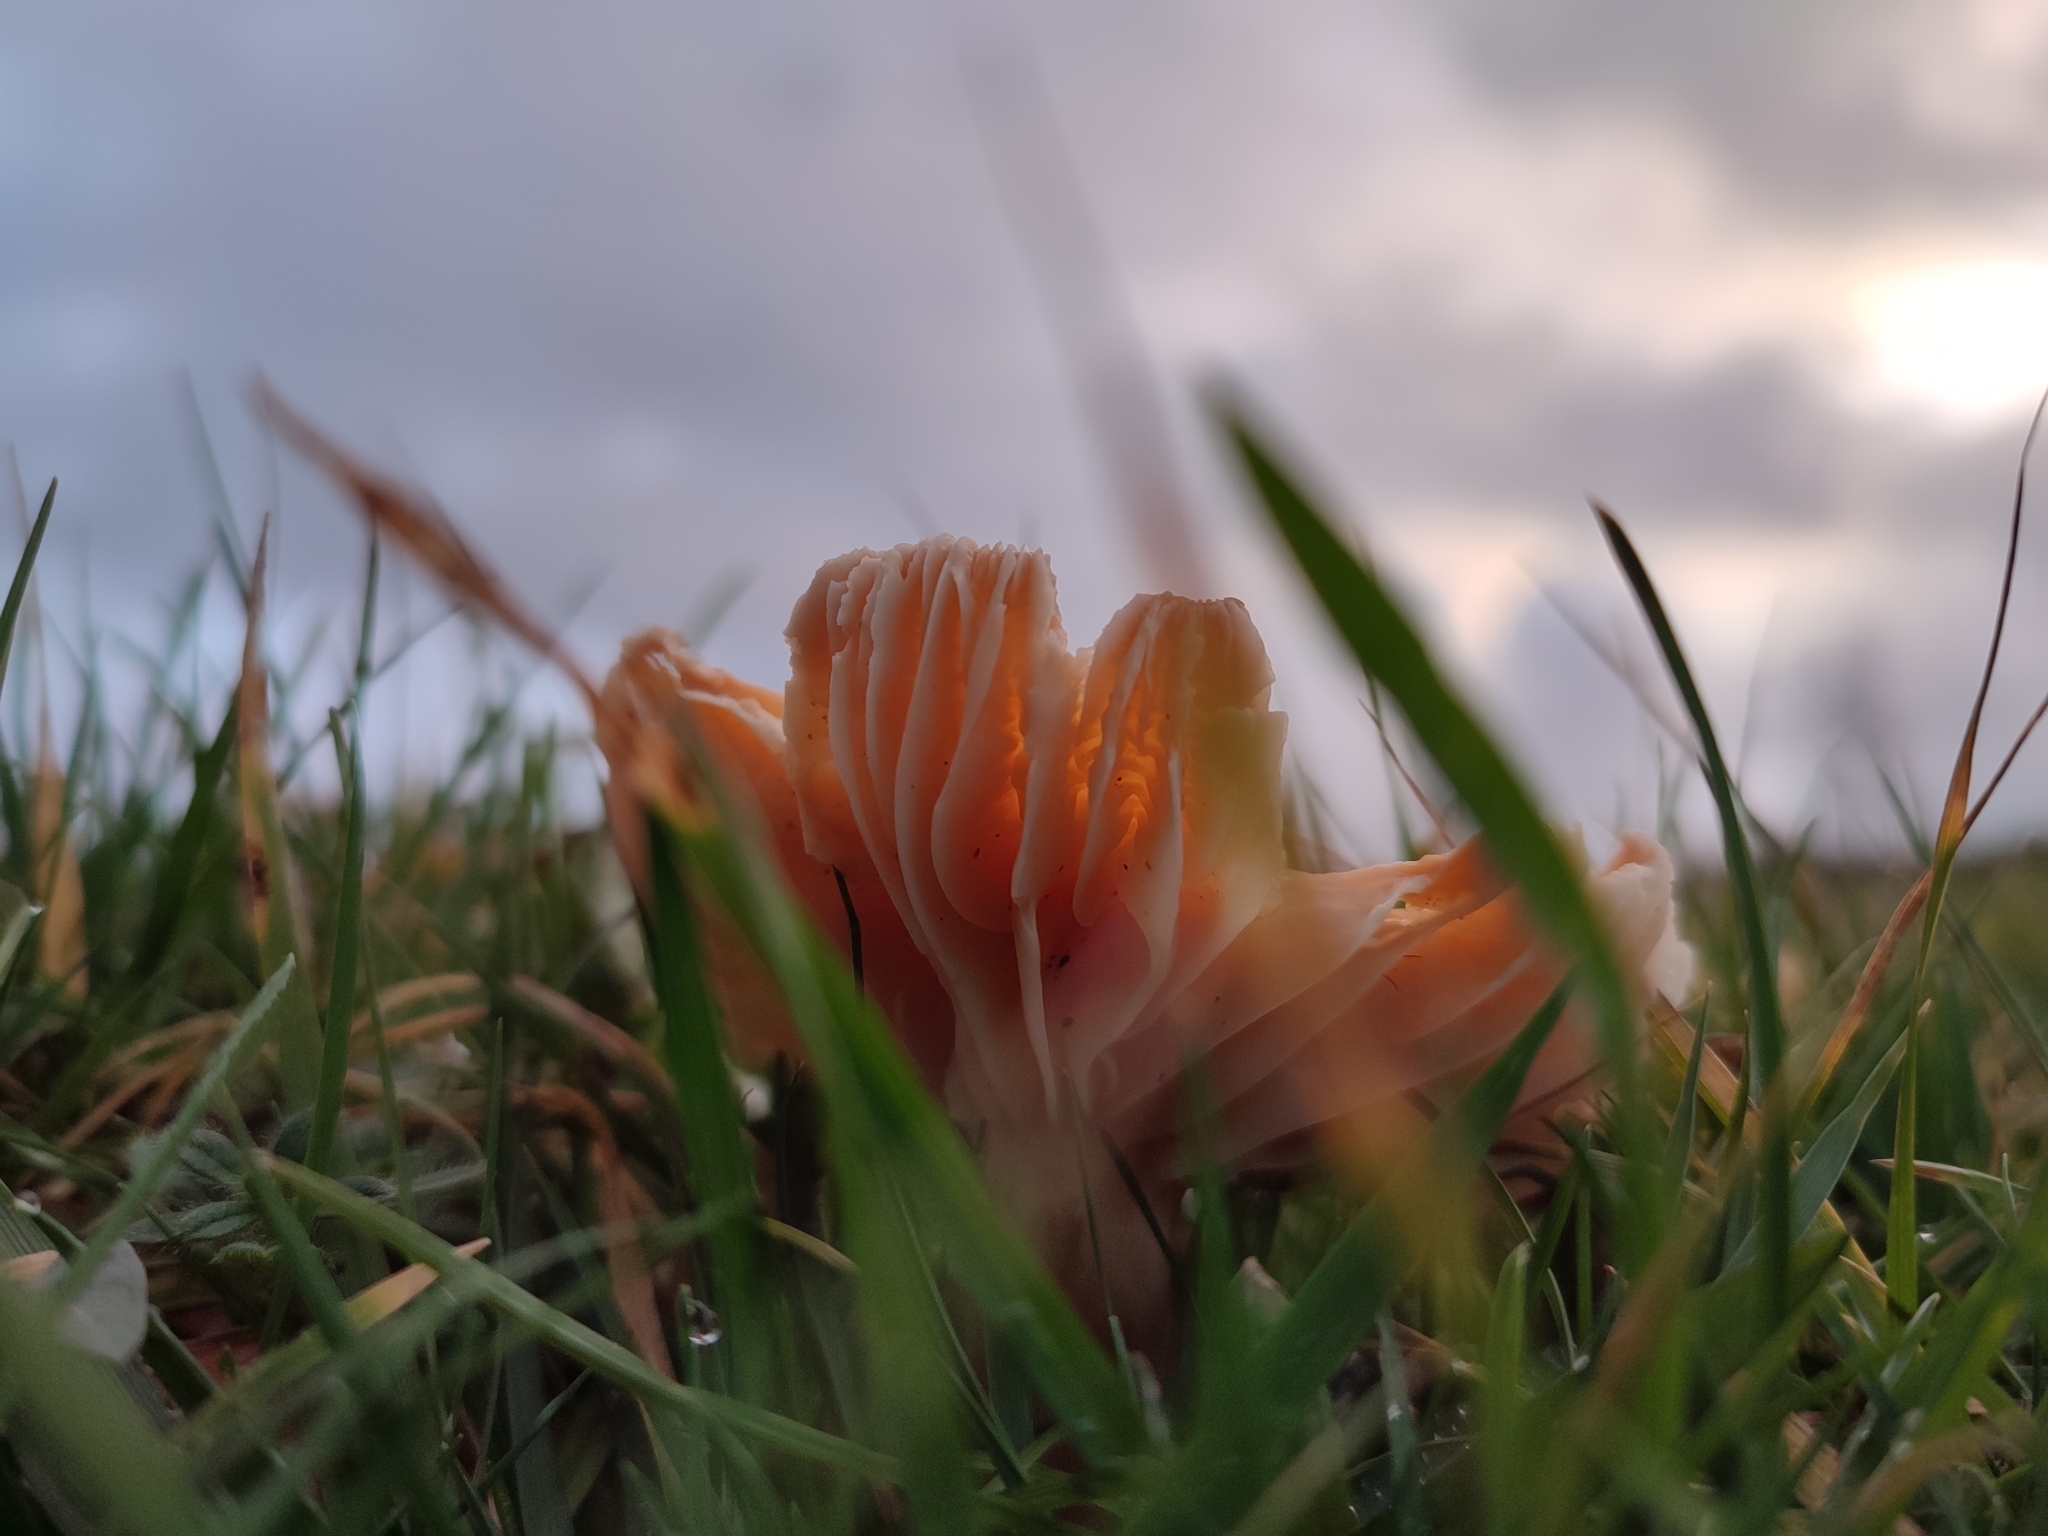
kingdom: Fungi
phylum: Basidiomycota
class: Agaricomycetes
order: Agaricales
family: Hygrophoraceae
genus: Cuphophyllus
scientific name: Cuphophyllus pratensis
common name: Meadow waxcap
